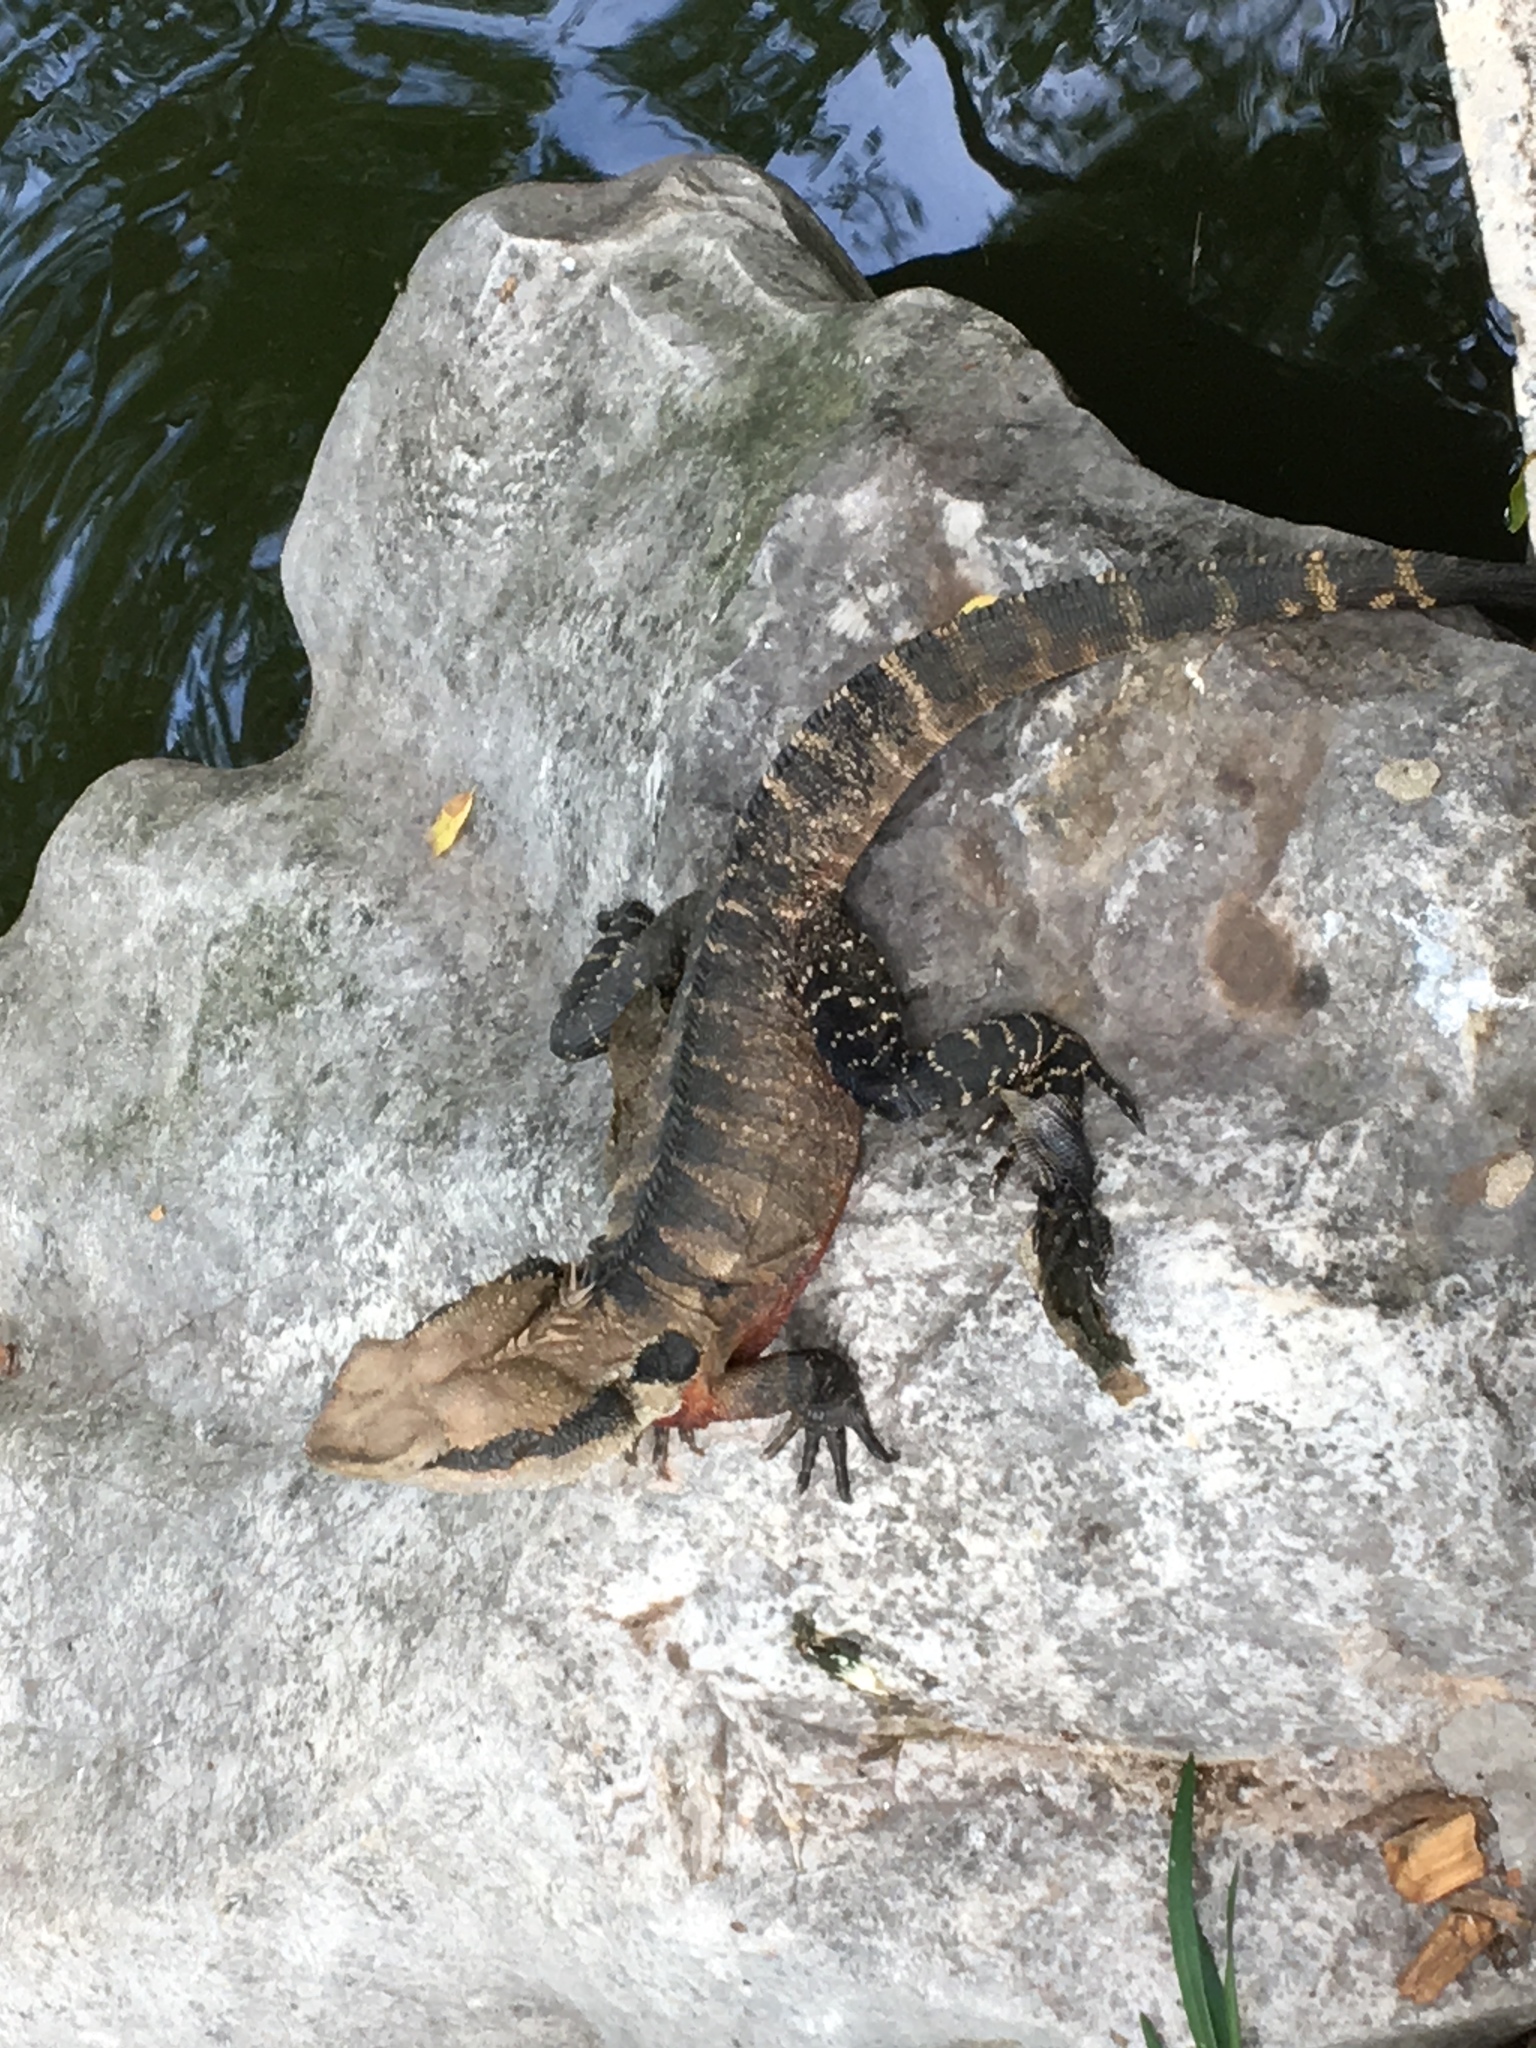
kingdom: Animalia
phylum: Chordata
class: Squamata
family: Agamidae
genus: Intellagama
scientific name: Intellagama lesueurii
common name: Eastern water dragon
